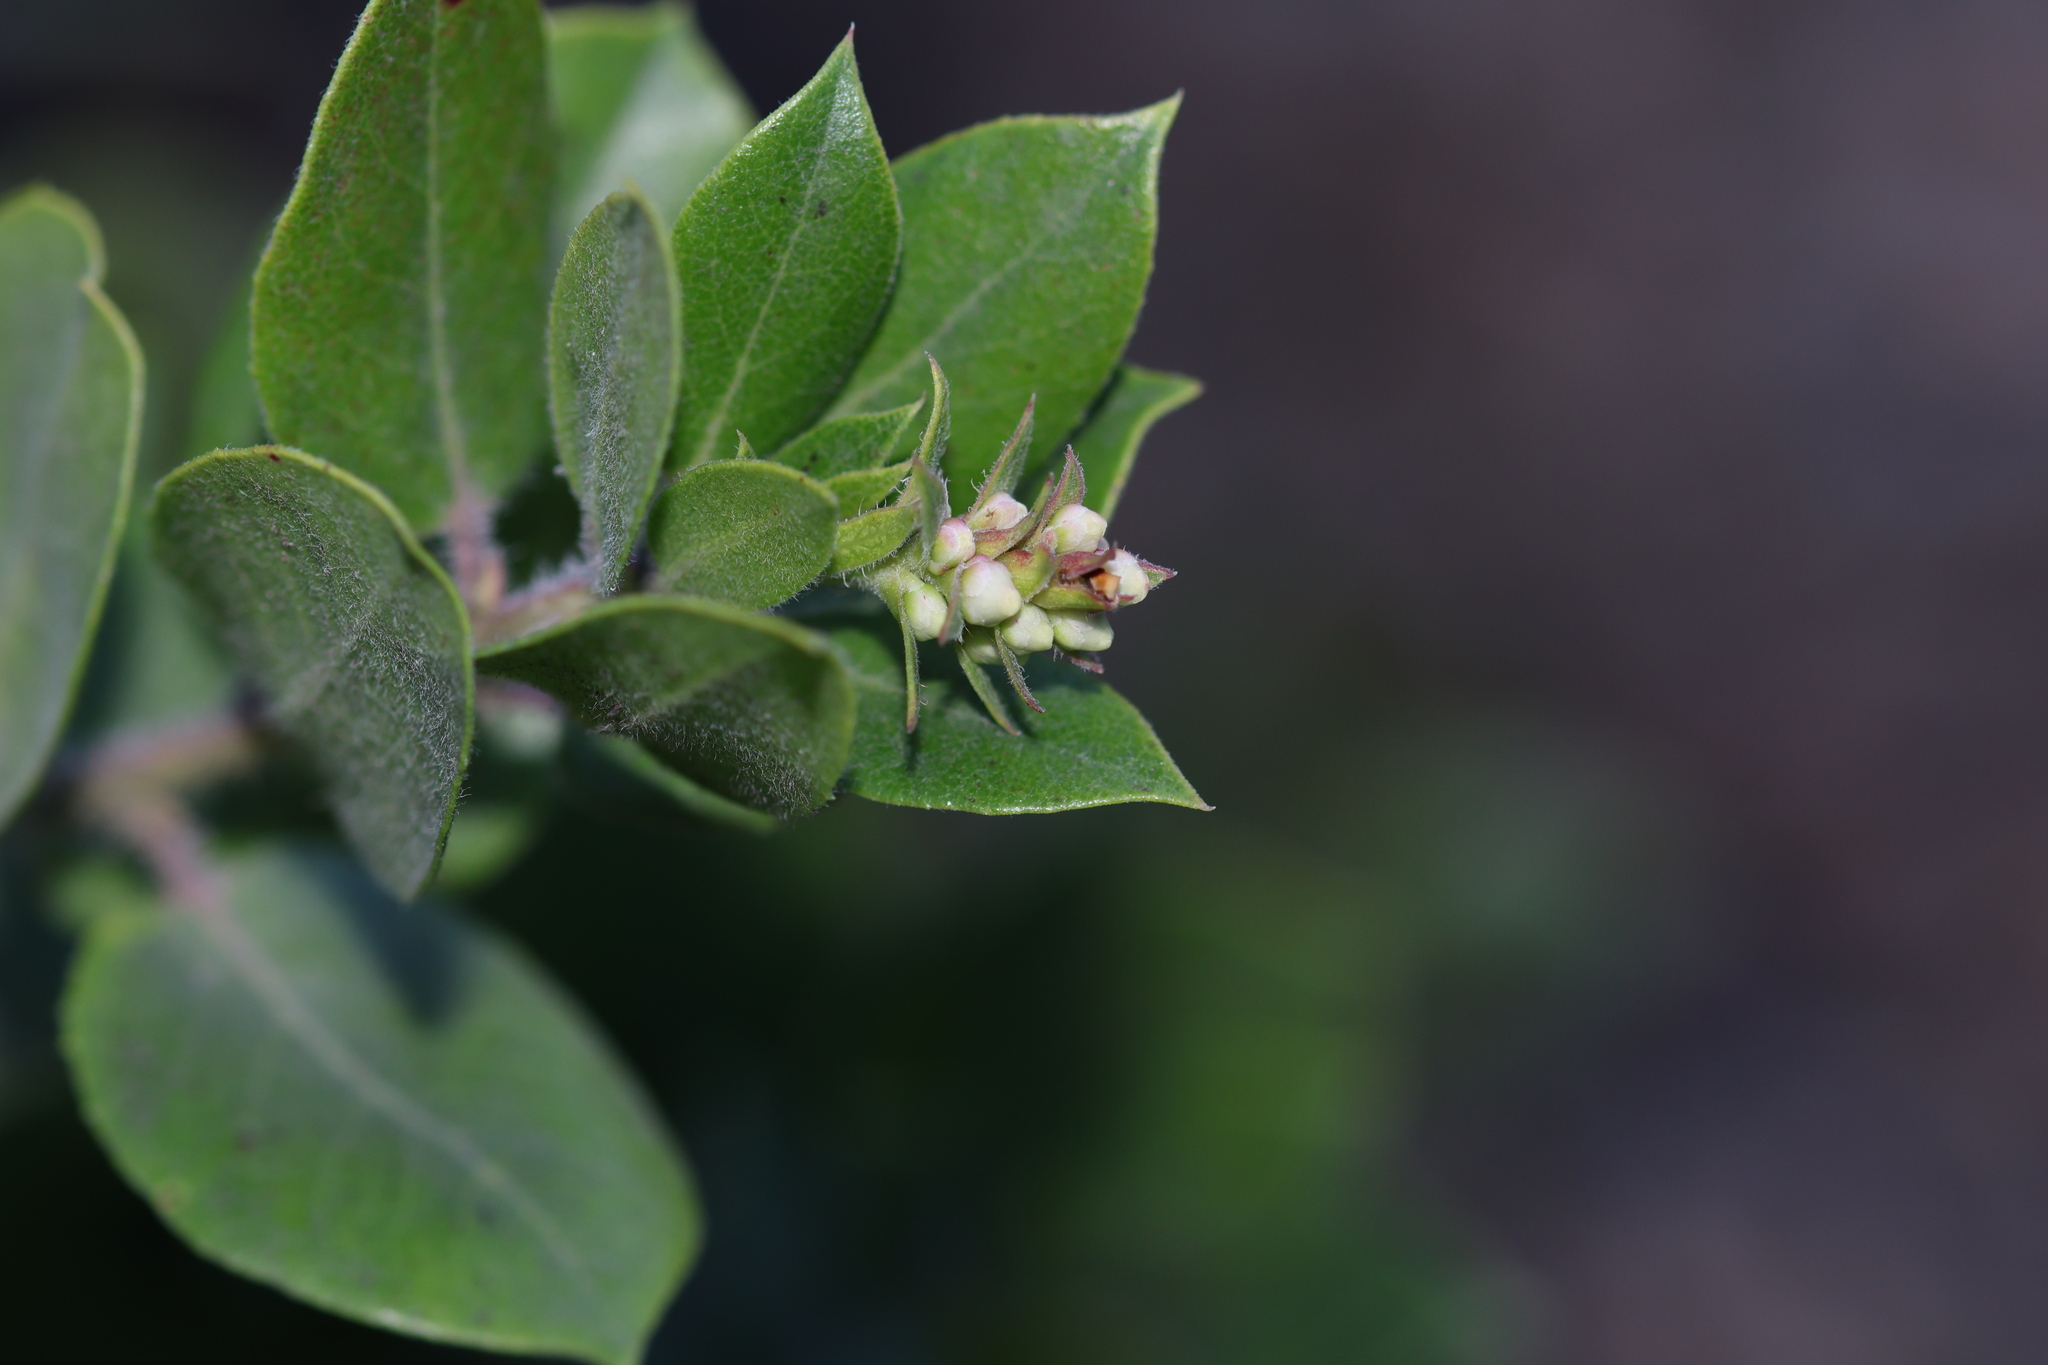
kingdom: Plantae
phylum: Tracheophyta
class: Magnoliopsida
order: Ericales
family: Ericaceae
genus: Arctostaphylos
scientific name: Arctostaphylos crustacea
